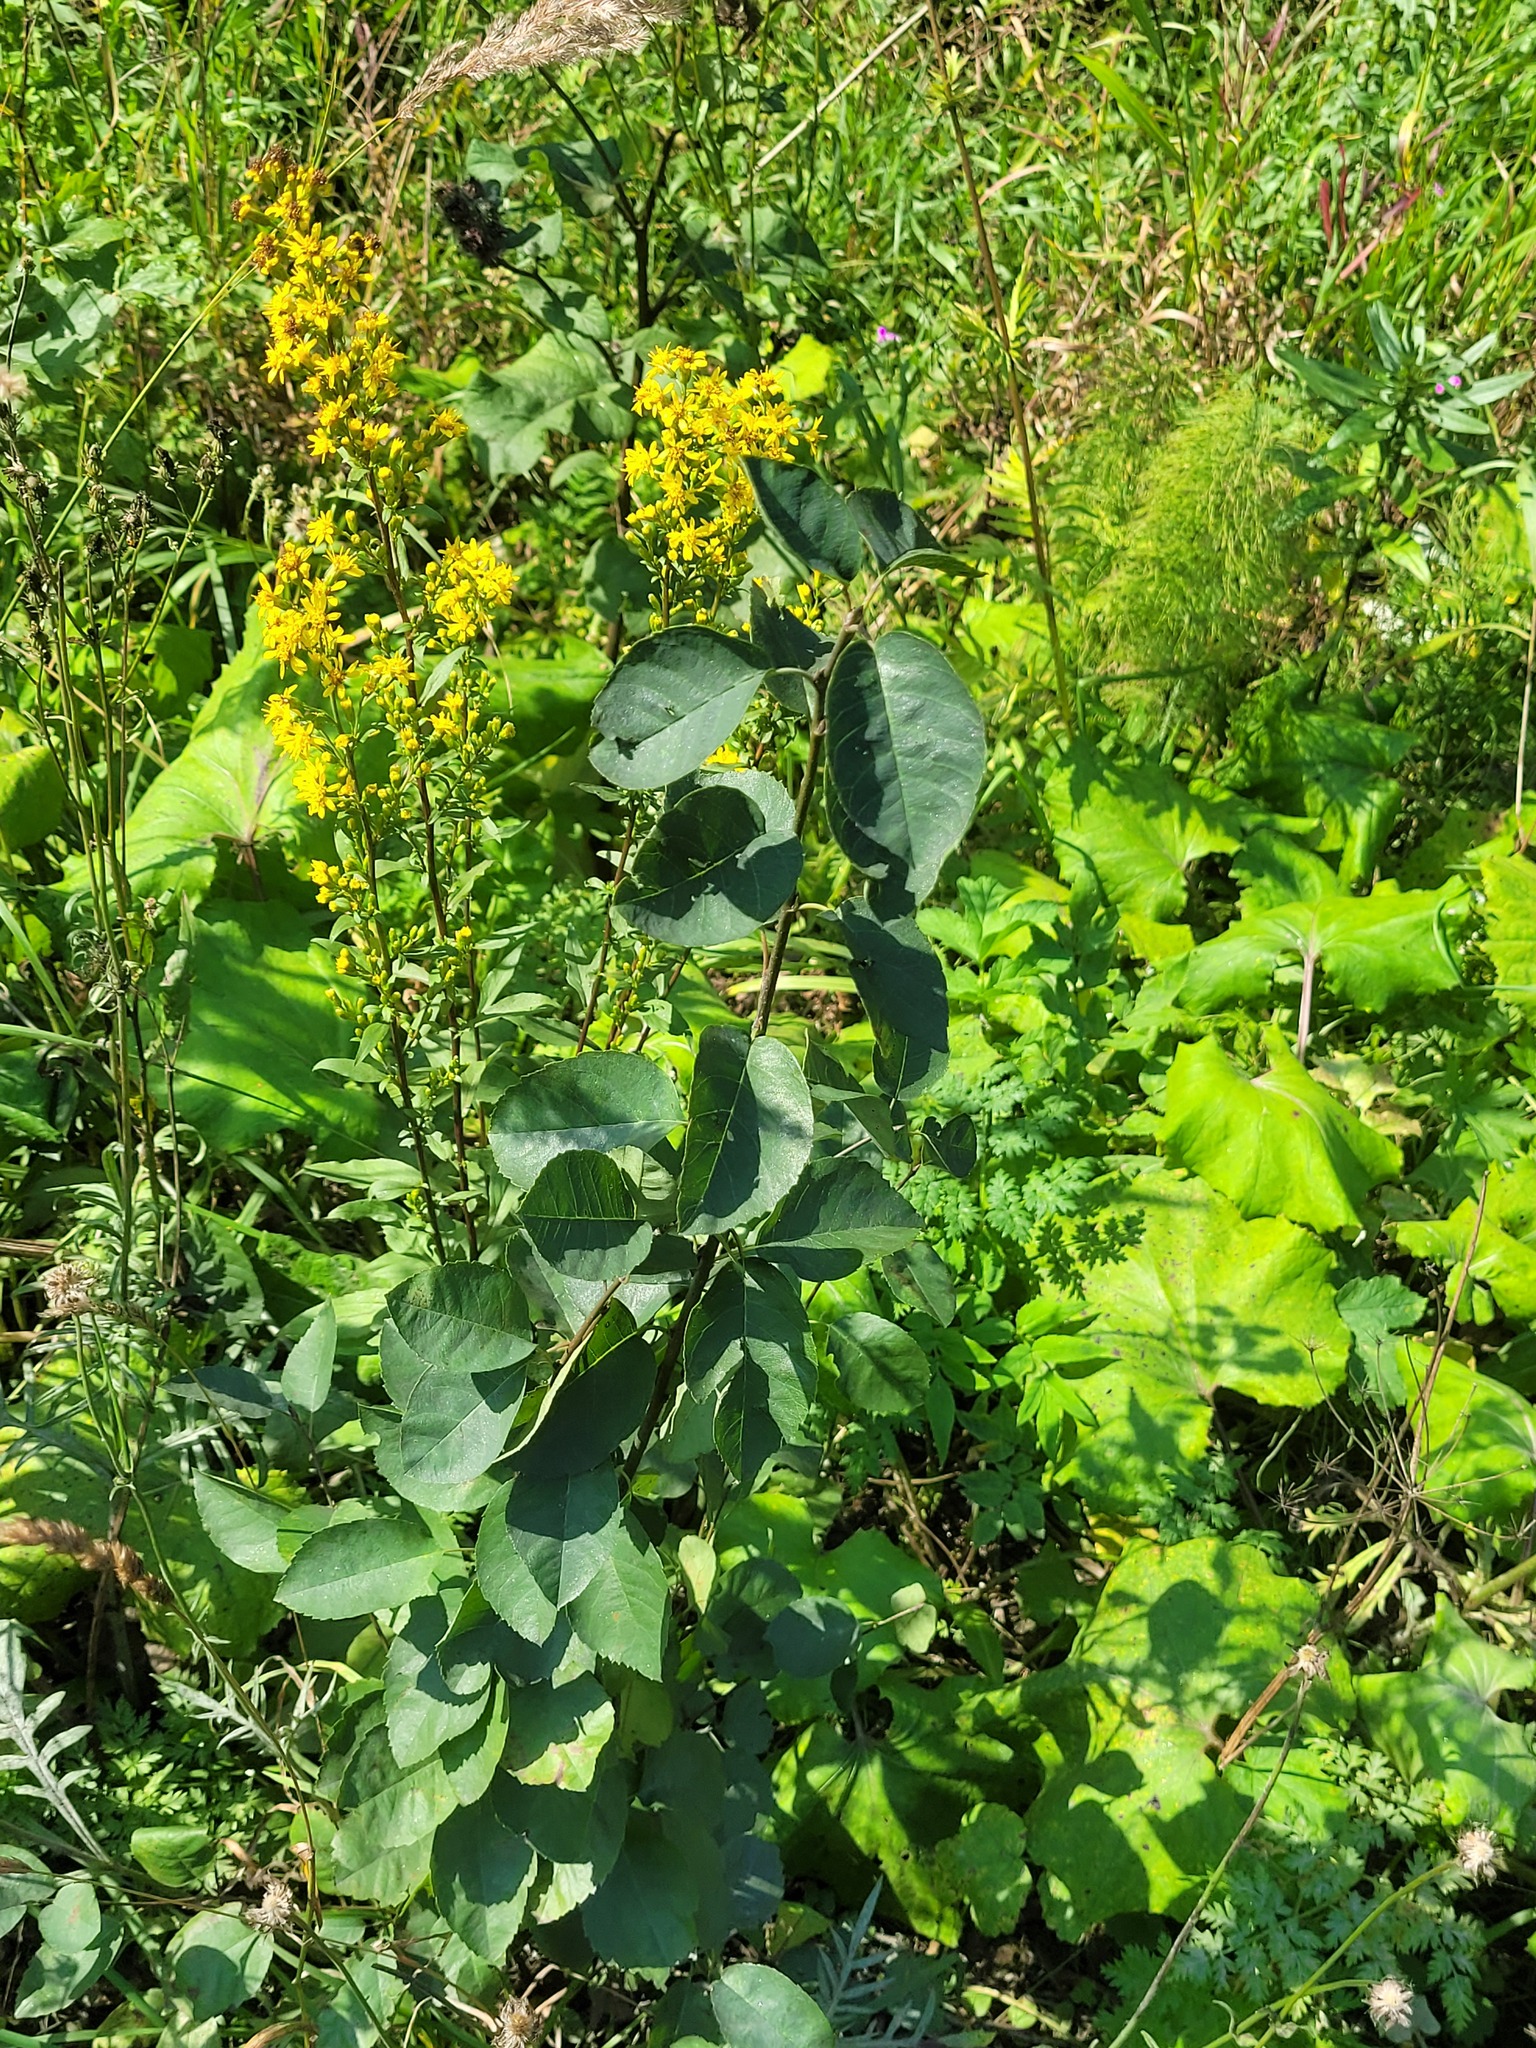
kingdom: Plantae
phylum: Tracheophyta
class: Magnoliopsida
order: Rosales
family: Rosaceae
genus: Amelanchier
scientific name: Amelanchier
